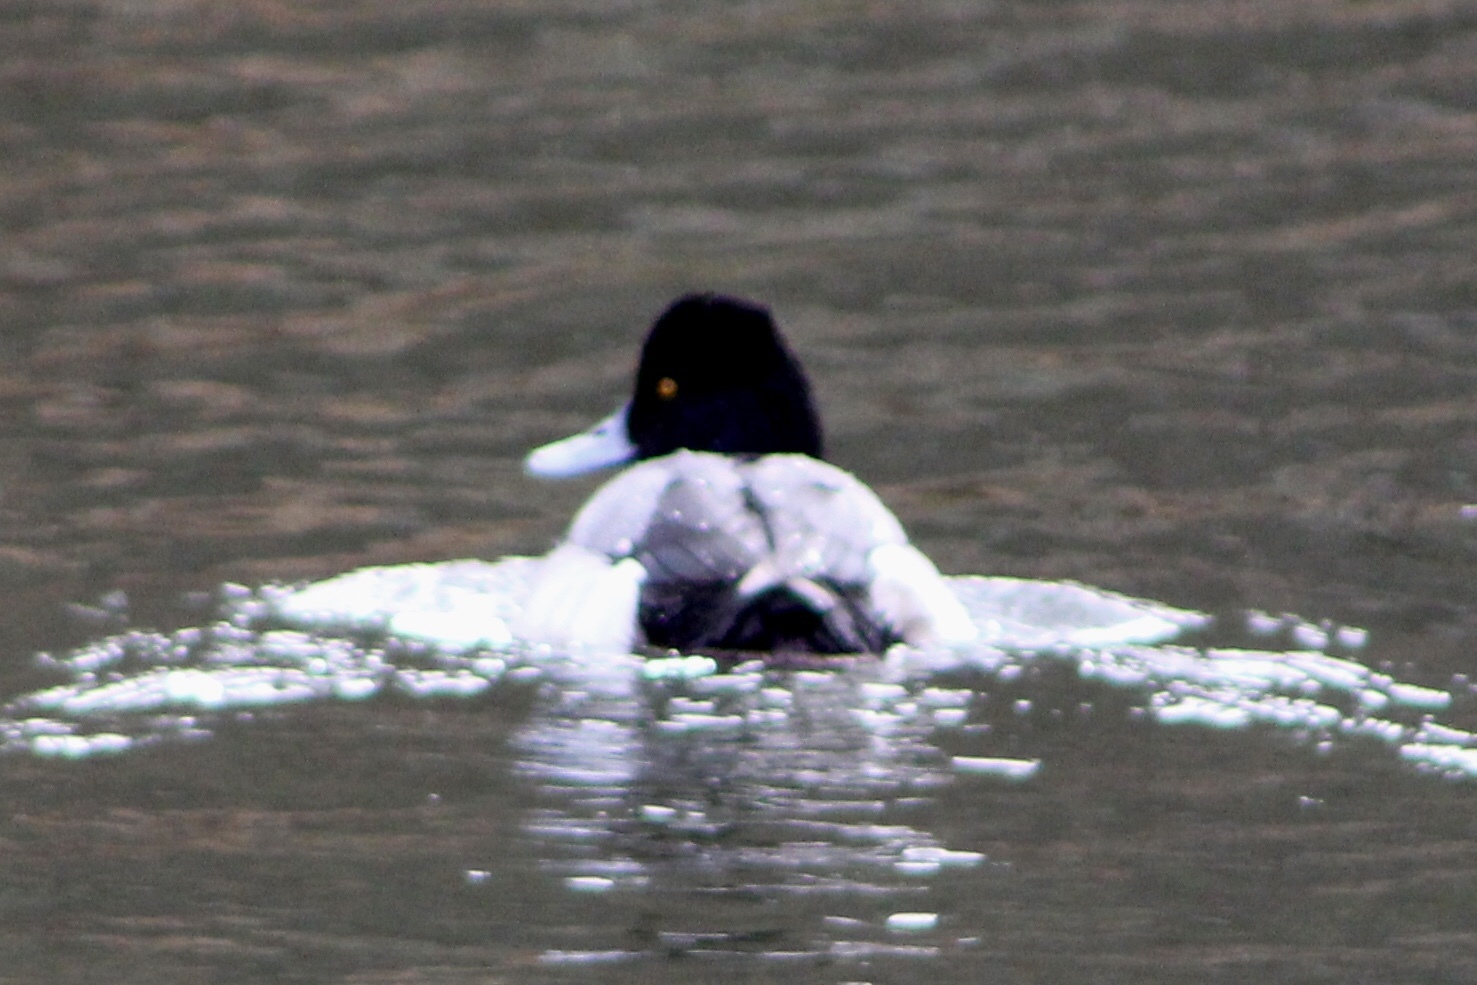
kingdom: Animalia
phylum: Chordata
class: Aves
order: Anseriformes
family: Anatidae
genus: Aythya
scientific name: Aythya affinis
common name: Lesser scaup
